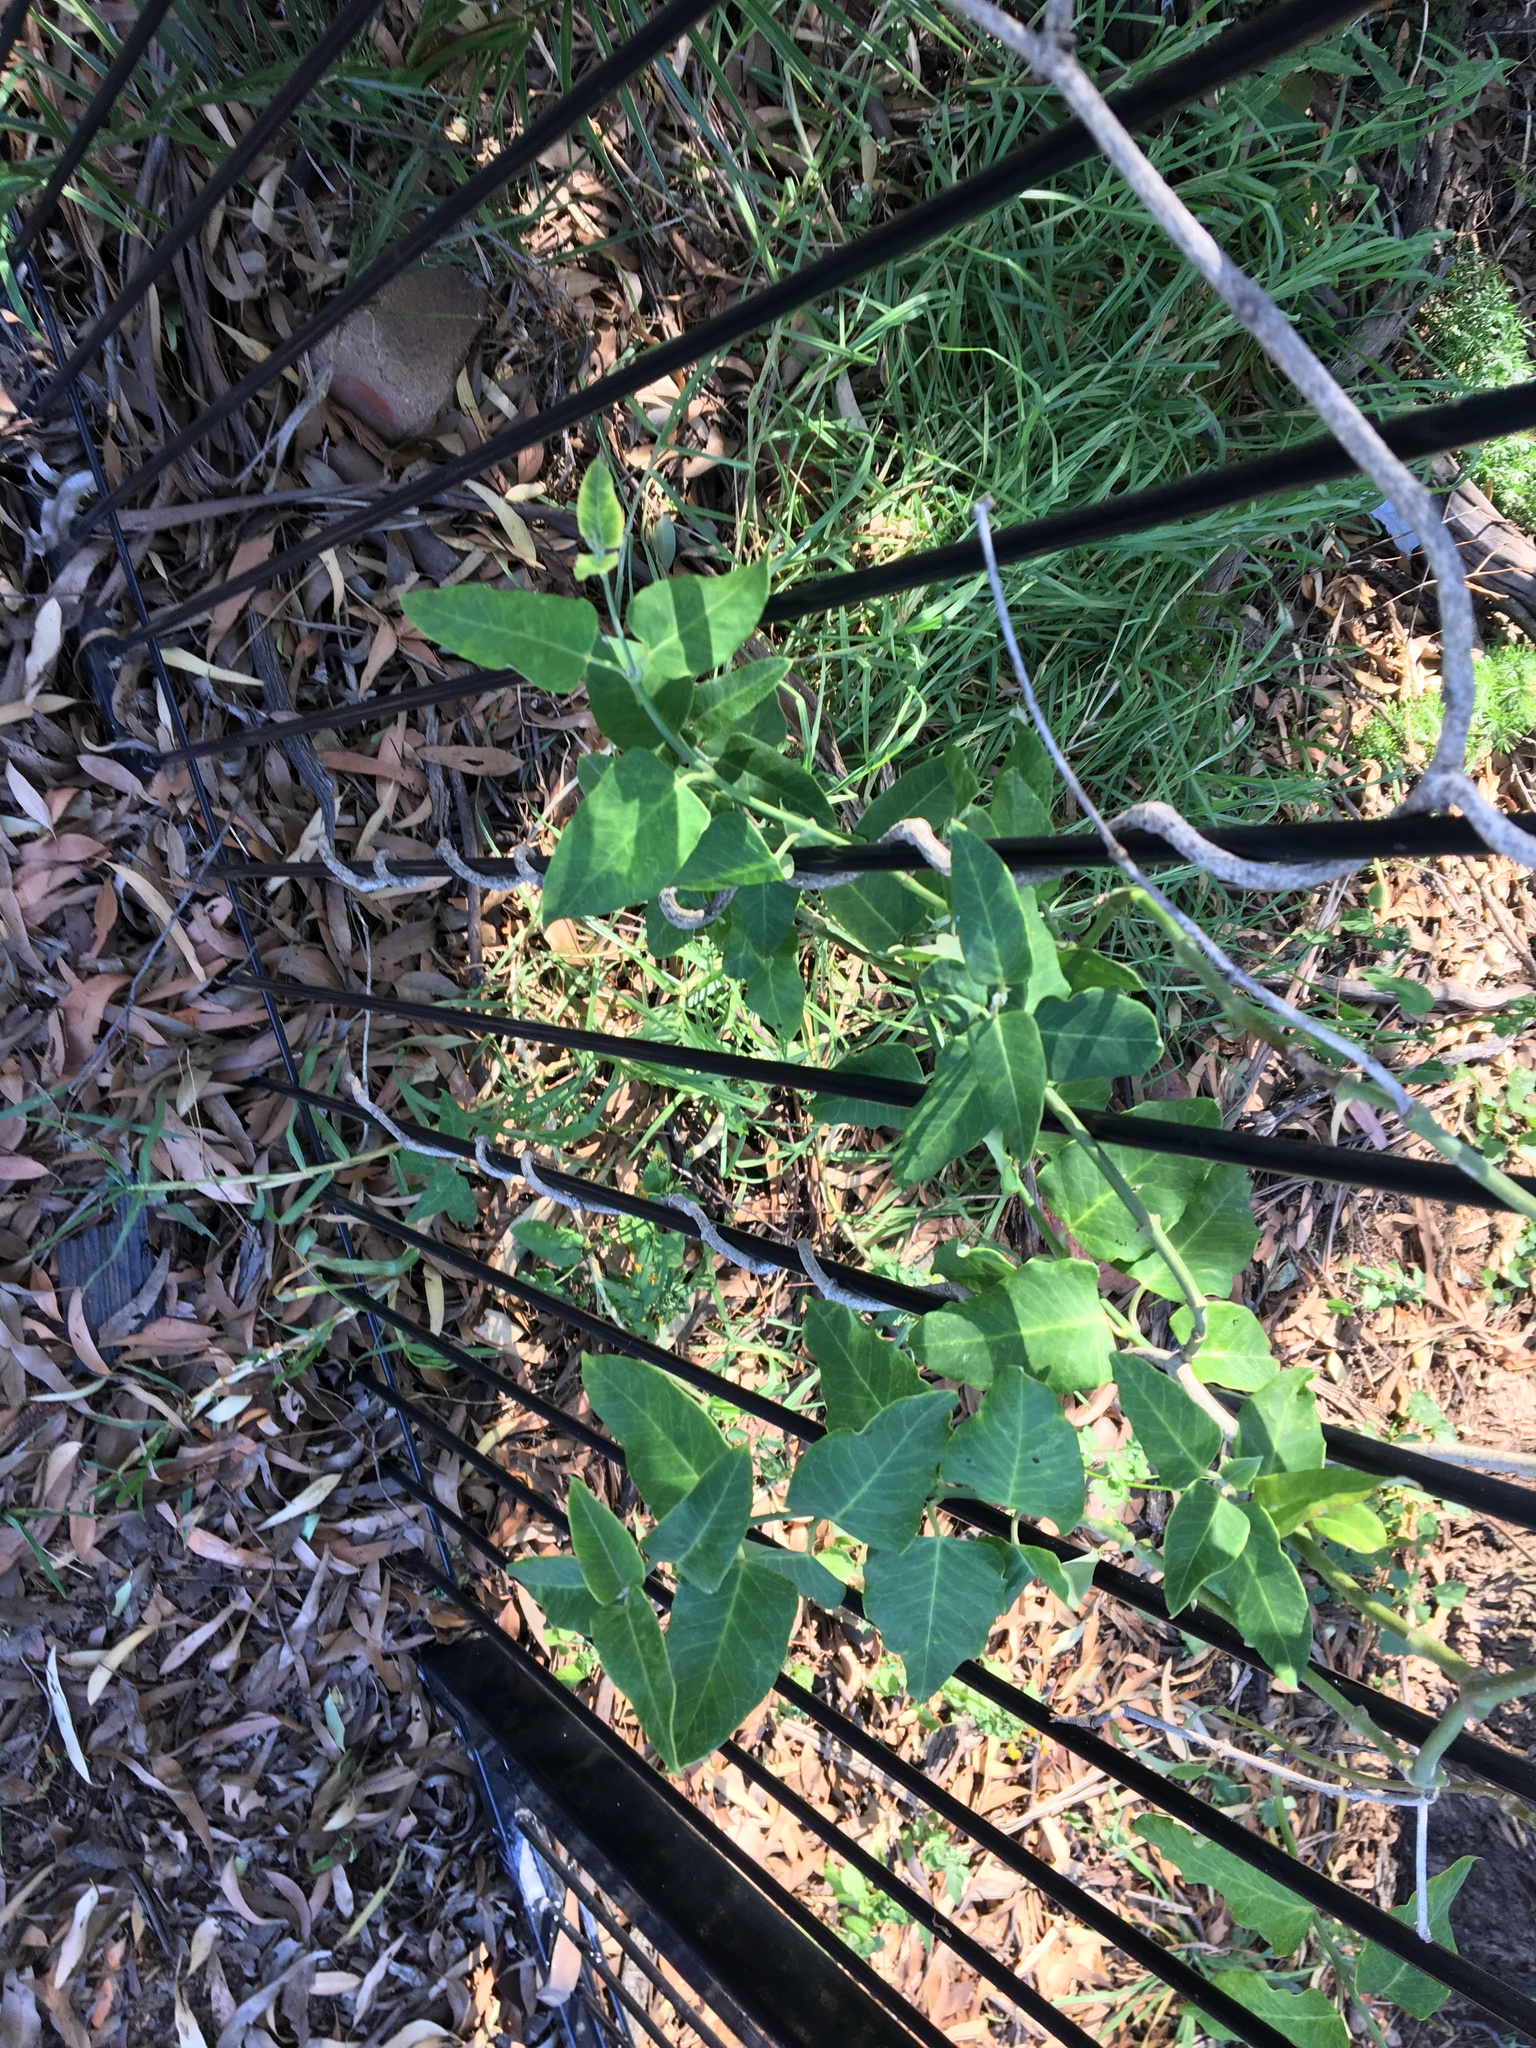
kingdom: Plantae
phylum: Tracheophyta
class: Magnoliopsida
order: Gentianales
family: Apocynaceae
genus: Araujia
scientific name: Araujia sericifera
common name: White bladderflower
